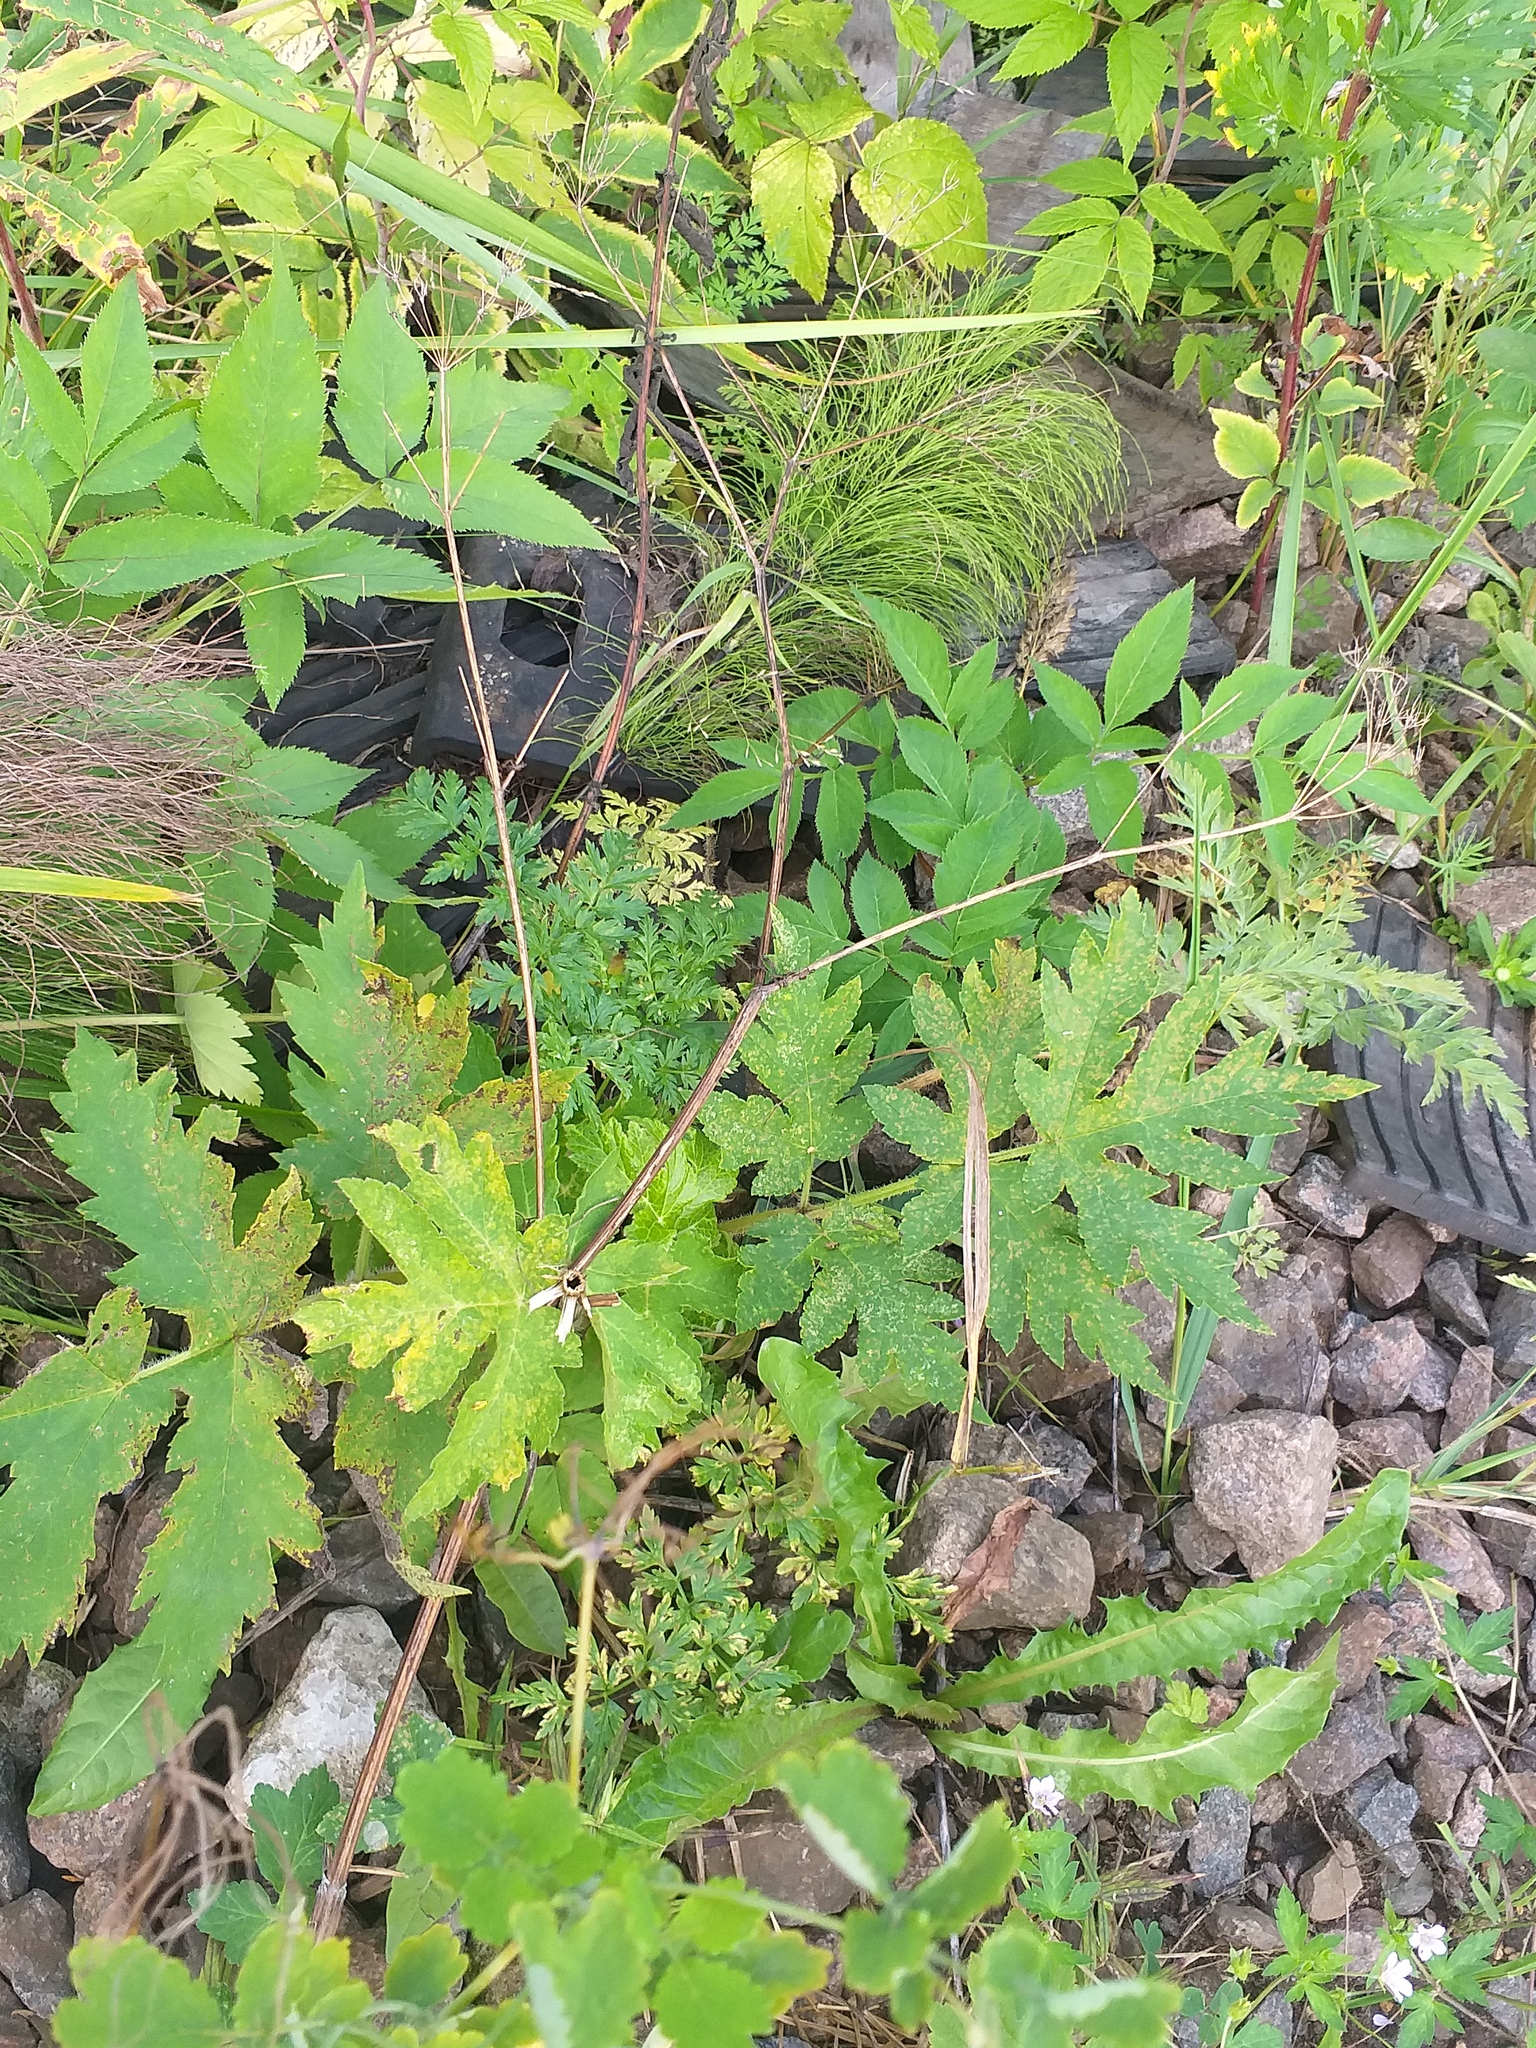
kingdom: Plantae
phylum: Tracheophyta
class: Magnoliopsida
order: Apiales
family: Apiaceae
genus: Heracleum
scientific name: Heracleum sphondylium
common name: Hogweed
